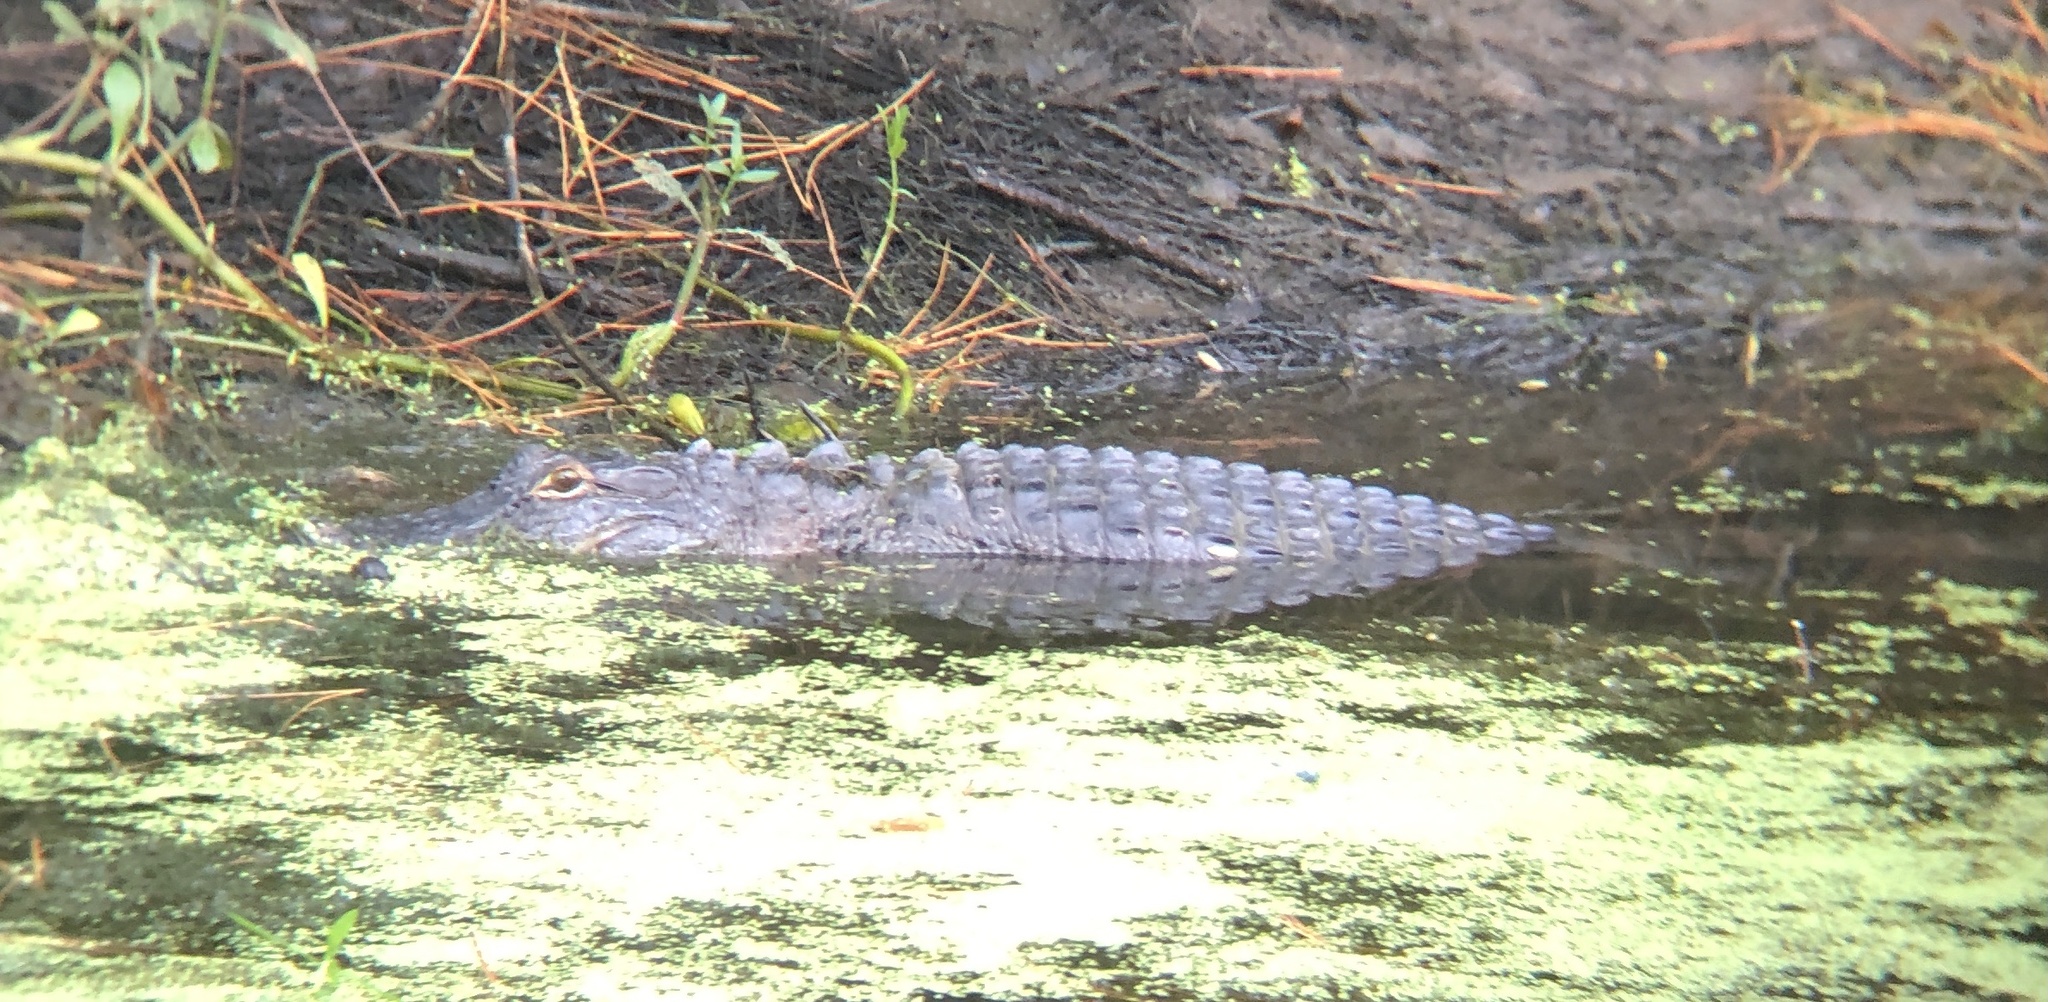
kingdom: Animalia
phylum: Chordata
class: Crocodylia
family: Alligatoridae
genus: Alligator
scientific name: Alligator mississippiensis
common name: American alligator
